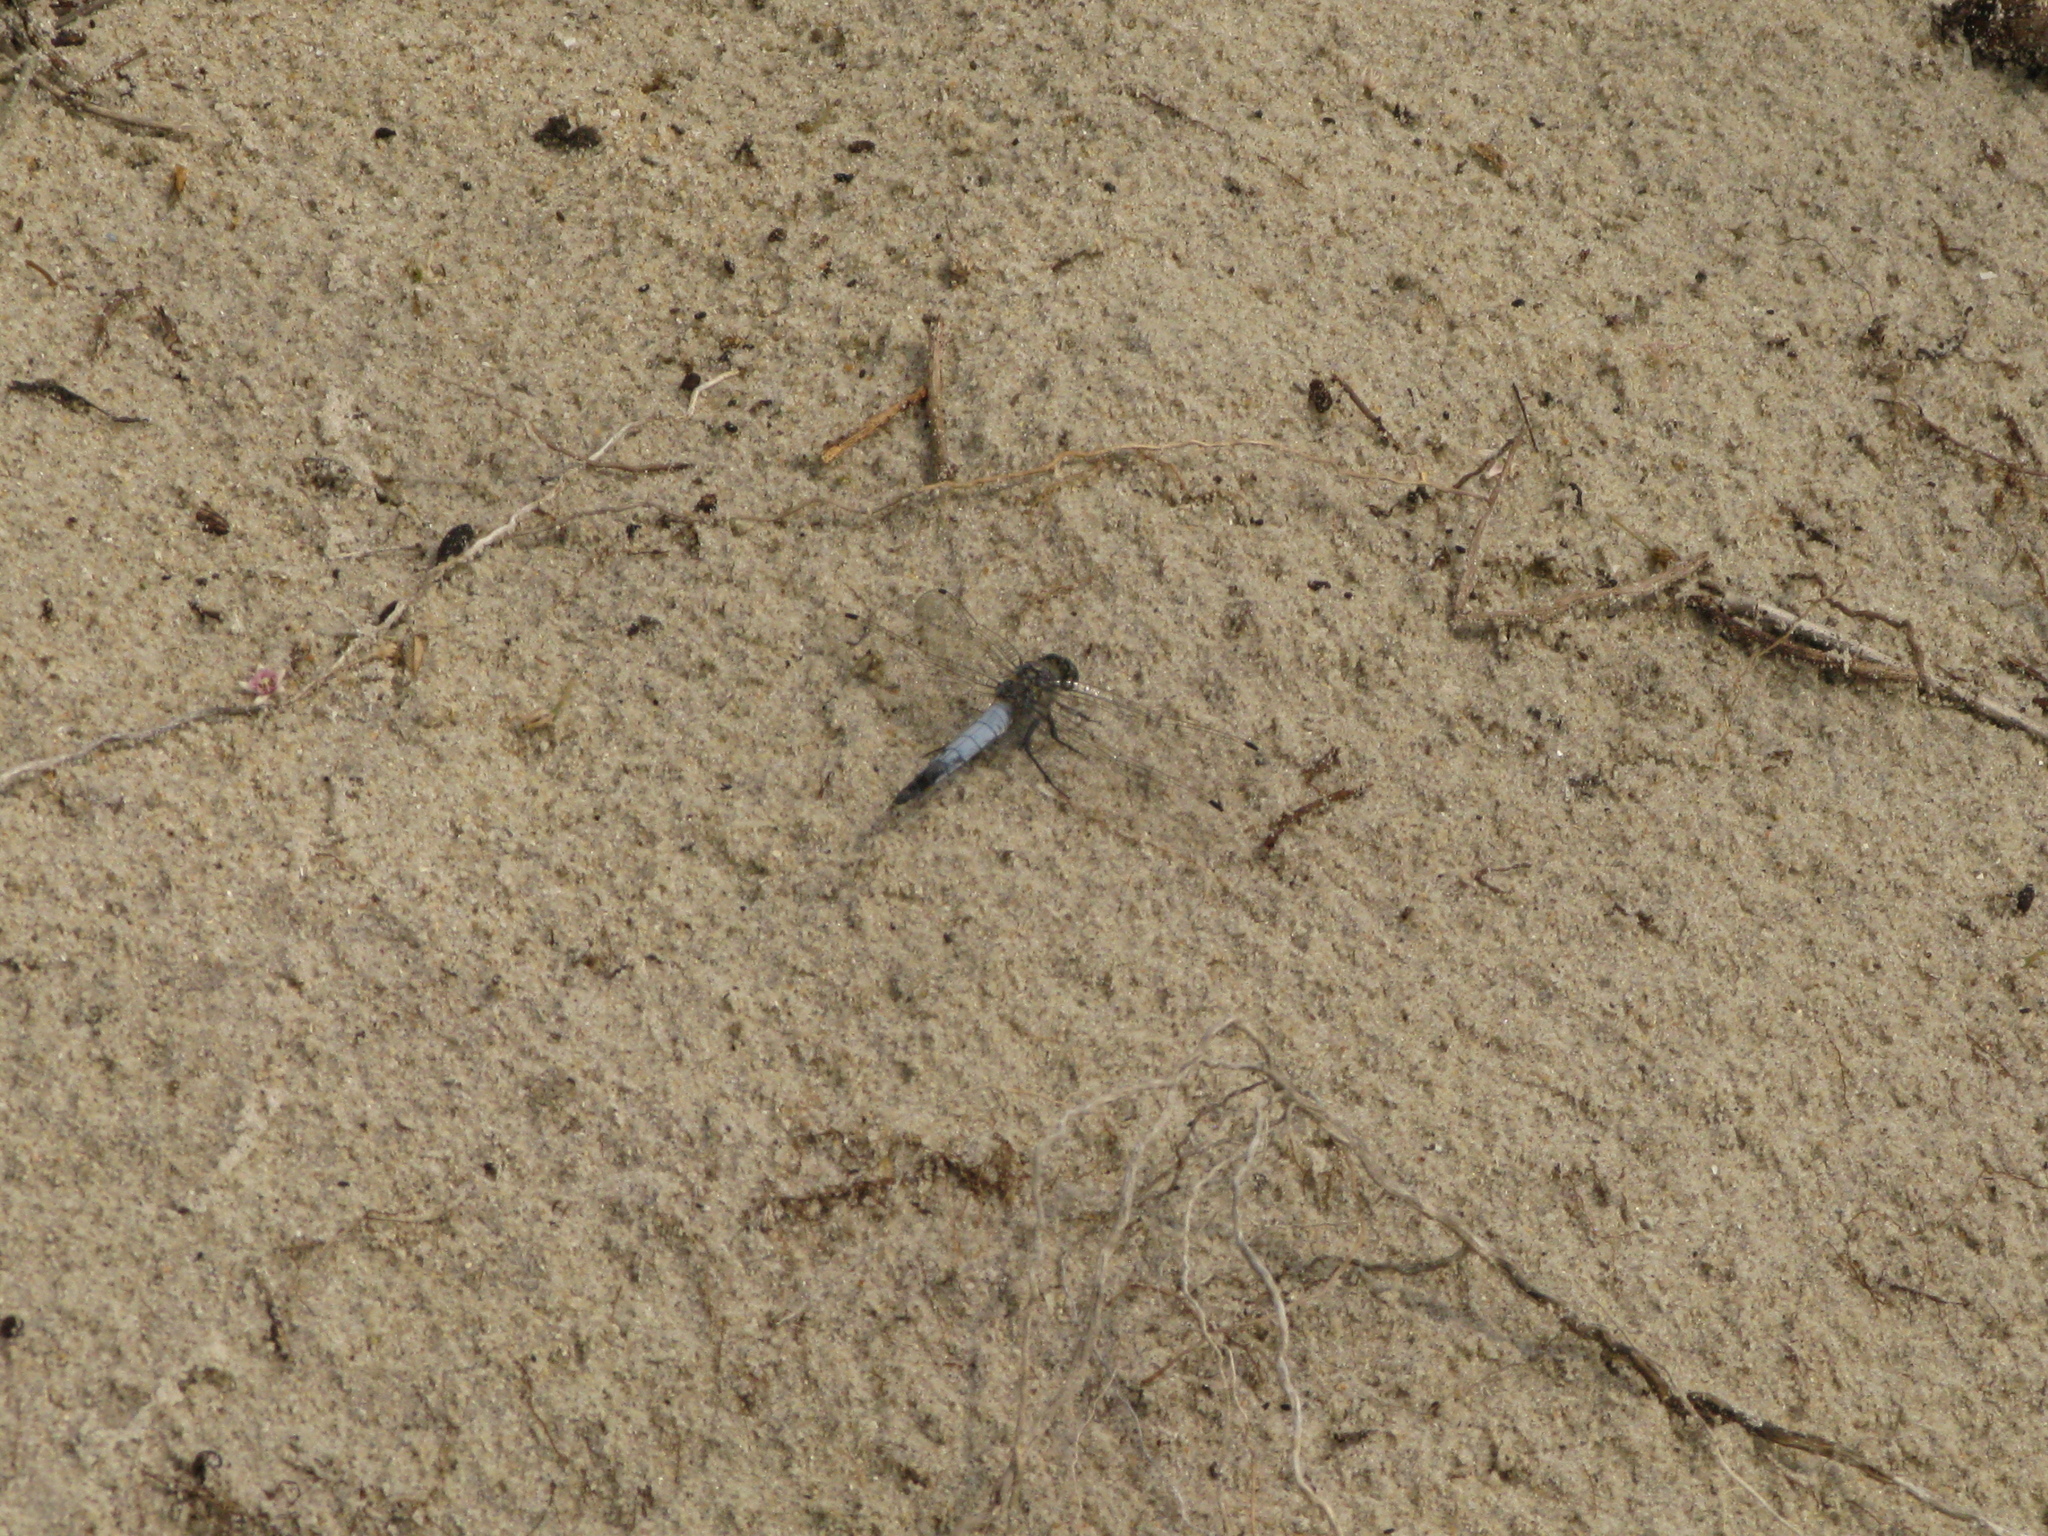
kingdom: Animalia
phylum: Arthropoda
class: Insecta
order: Odonata
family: Libellulidae
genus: Orthetrum
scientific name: Orthetrum cancellatum
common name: Black-tailed skimmer
